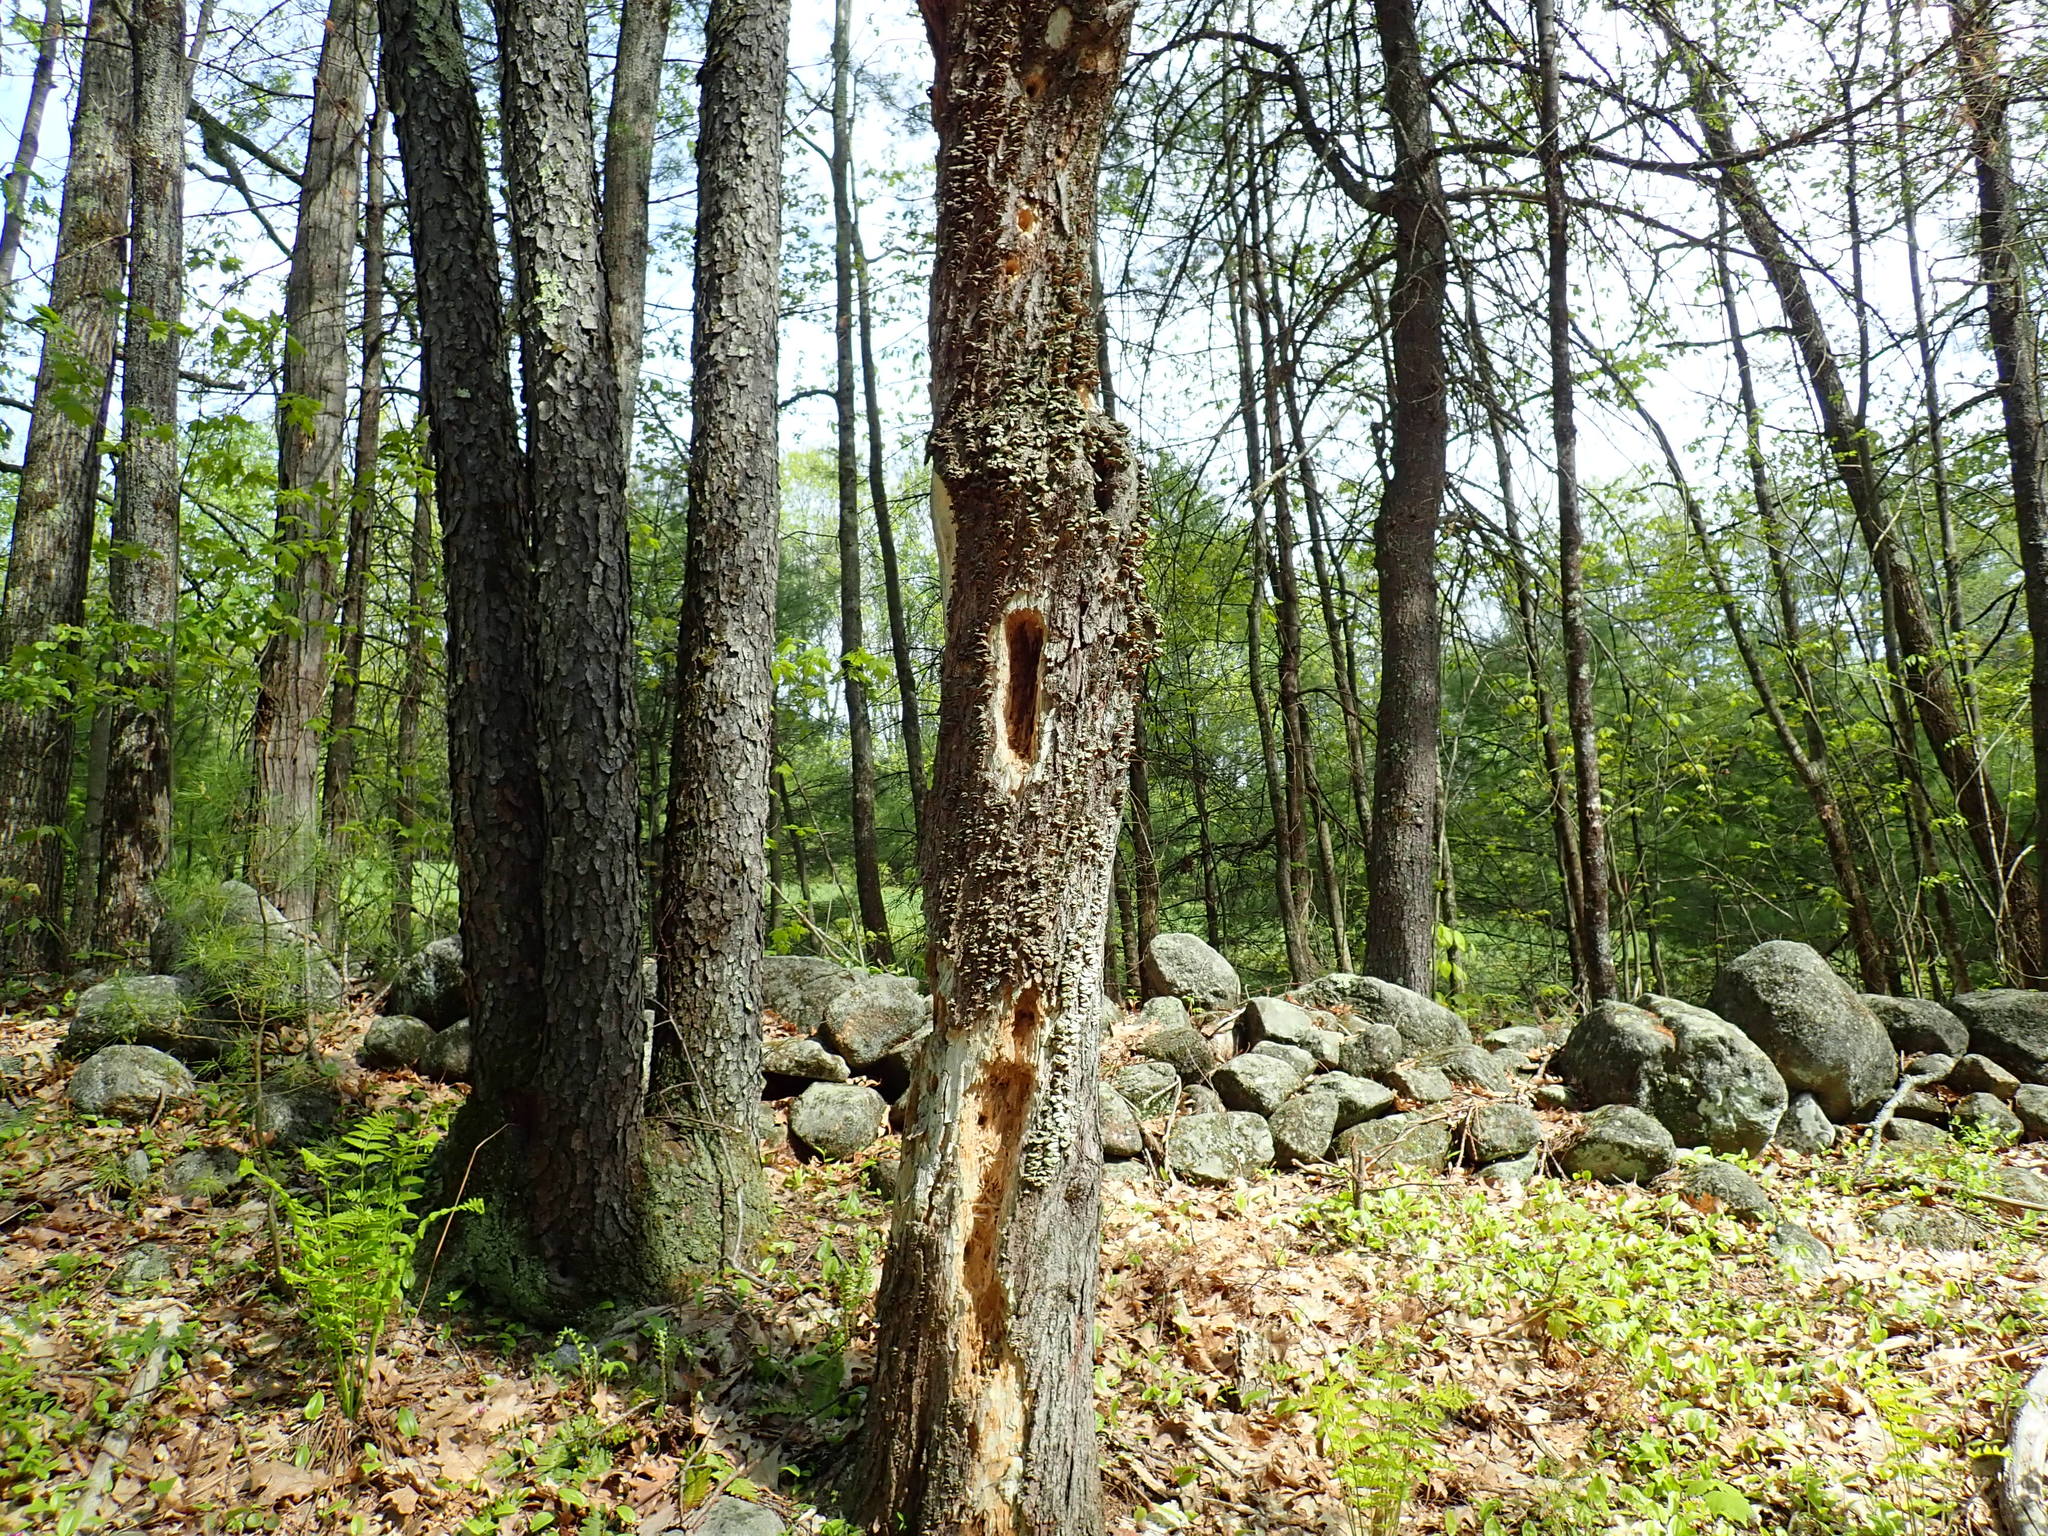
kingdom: Animalia
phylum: Chordata
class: Aves
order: Piciformes
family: Picidae
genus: Dryocopus
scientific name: Dryocopus pileatus
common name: Pileated woodpecker
